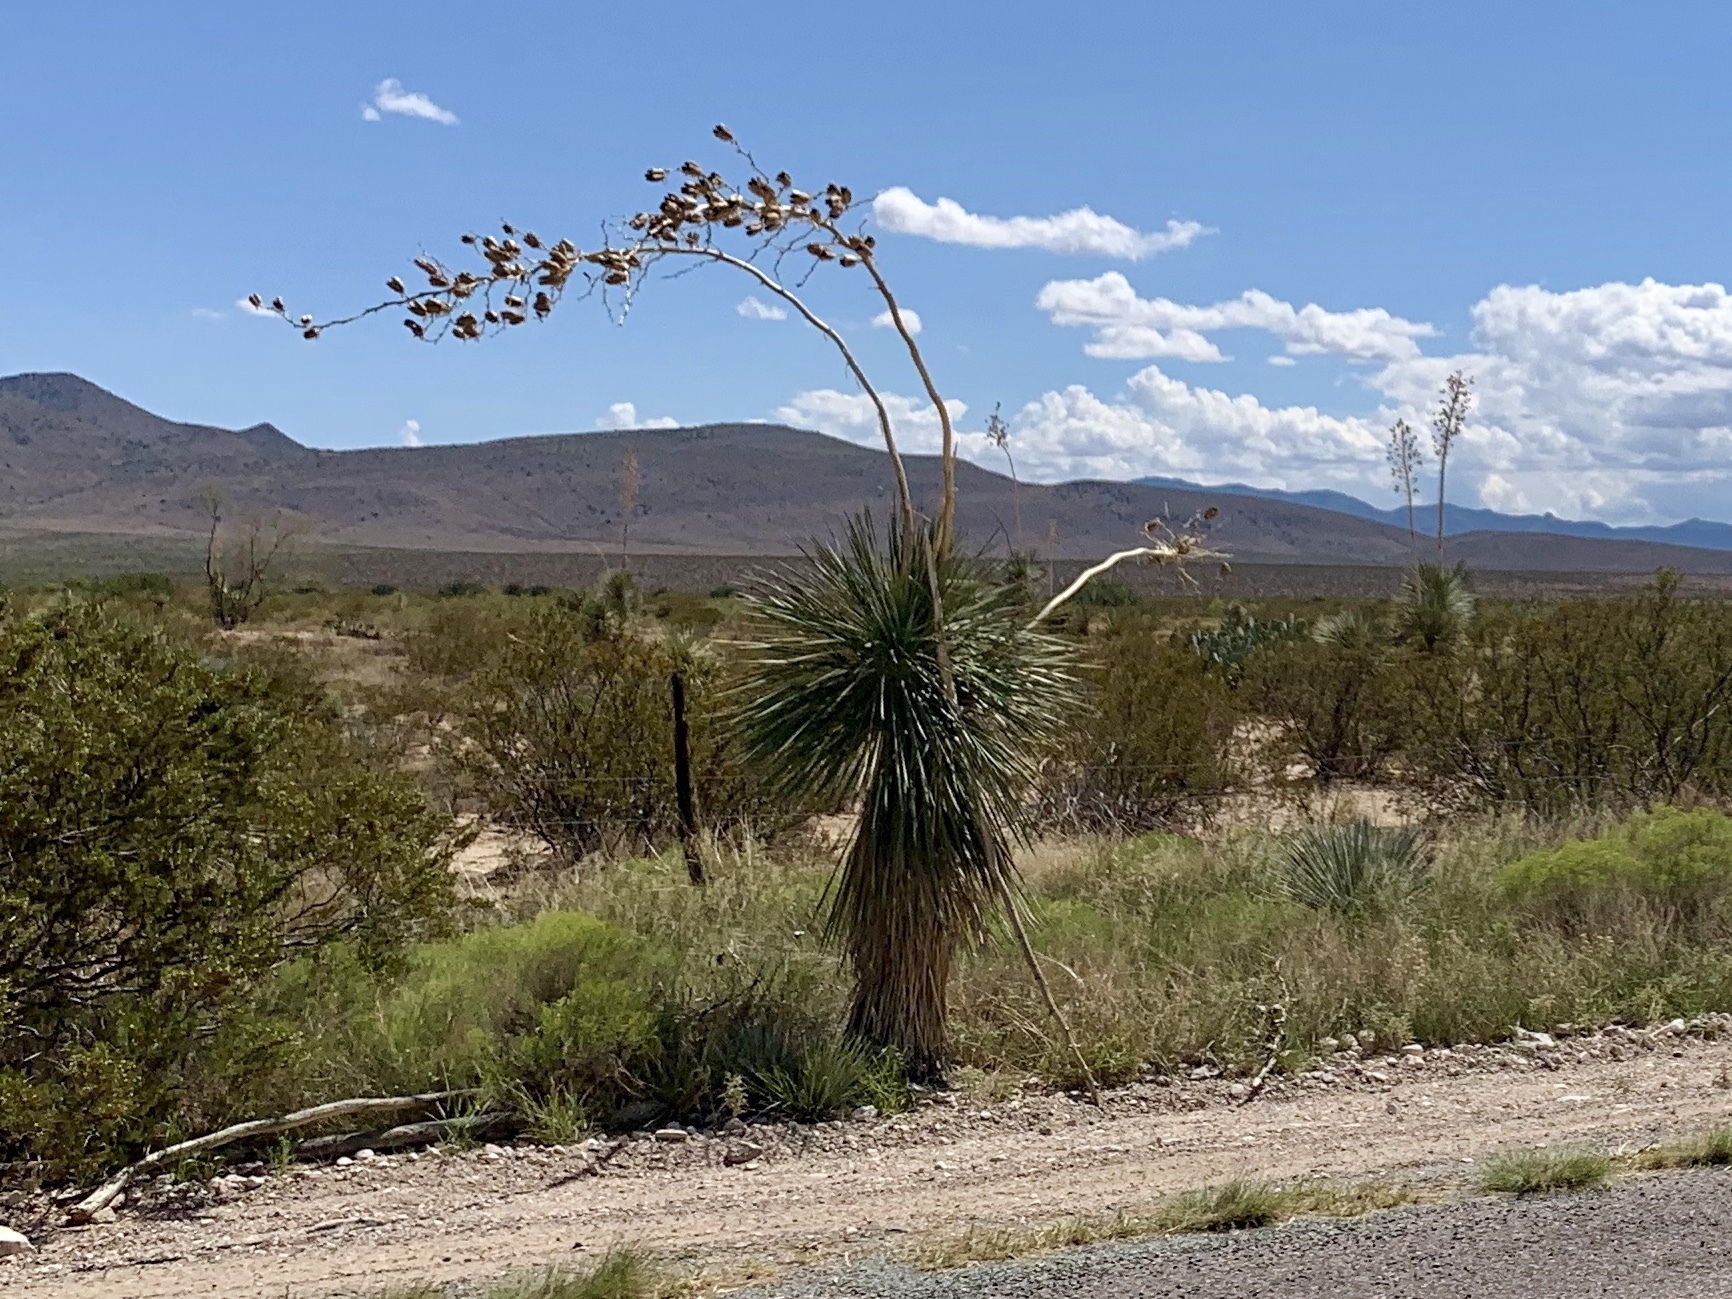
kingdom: Plantae
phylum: Tracheophyta
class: Liliopsida
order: Asparagales
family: Asparagaceae
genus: Yucca
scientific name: Yucca elata
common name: Palmella
